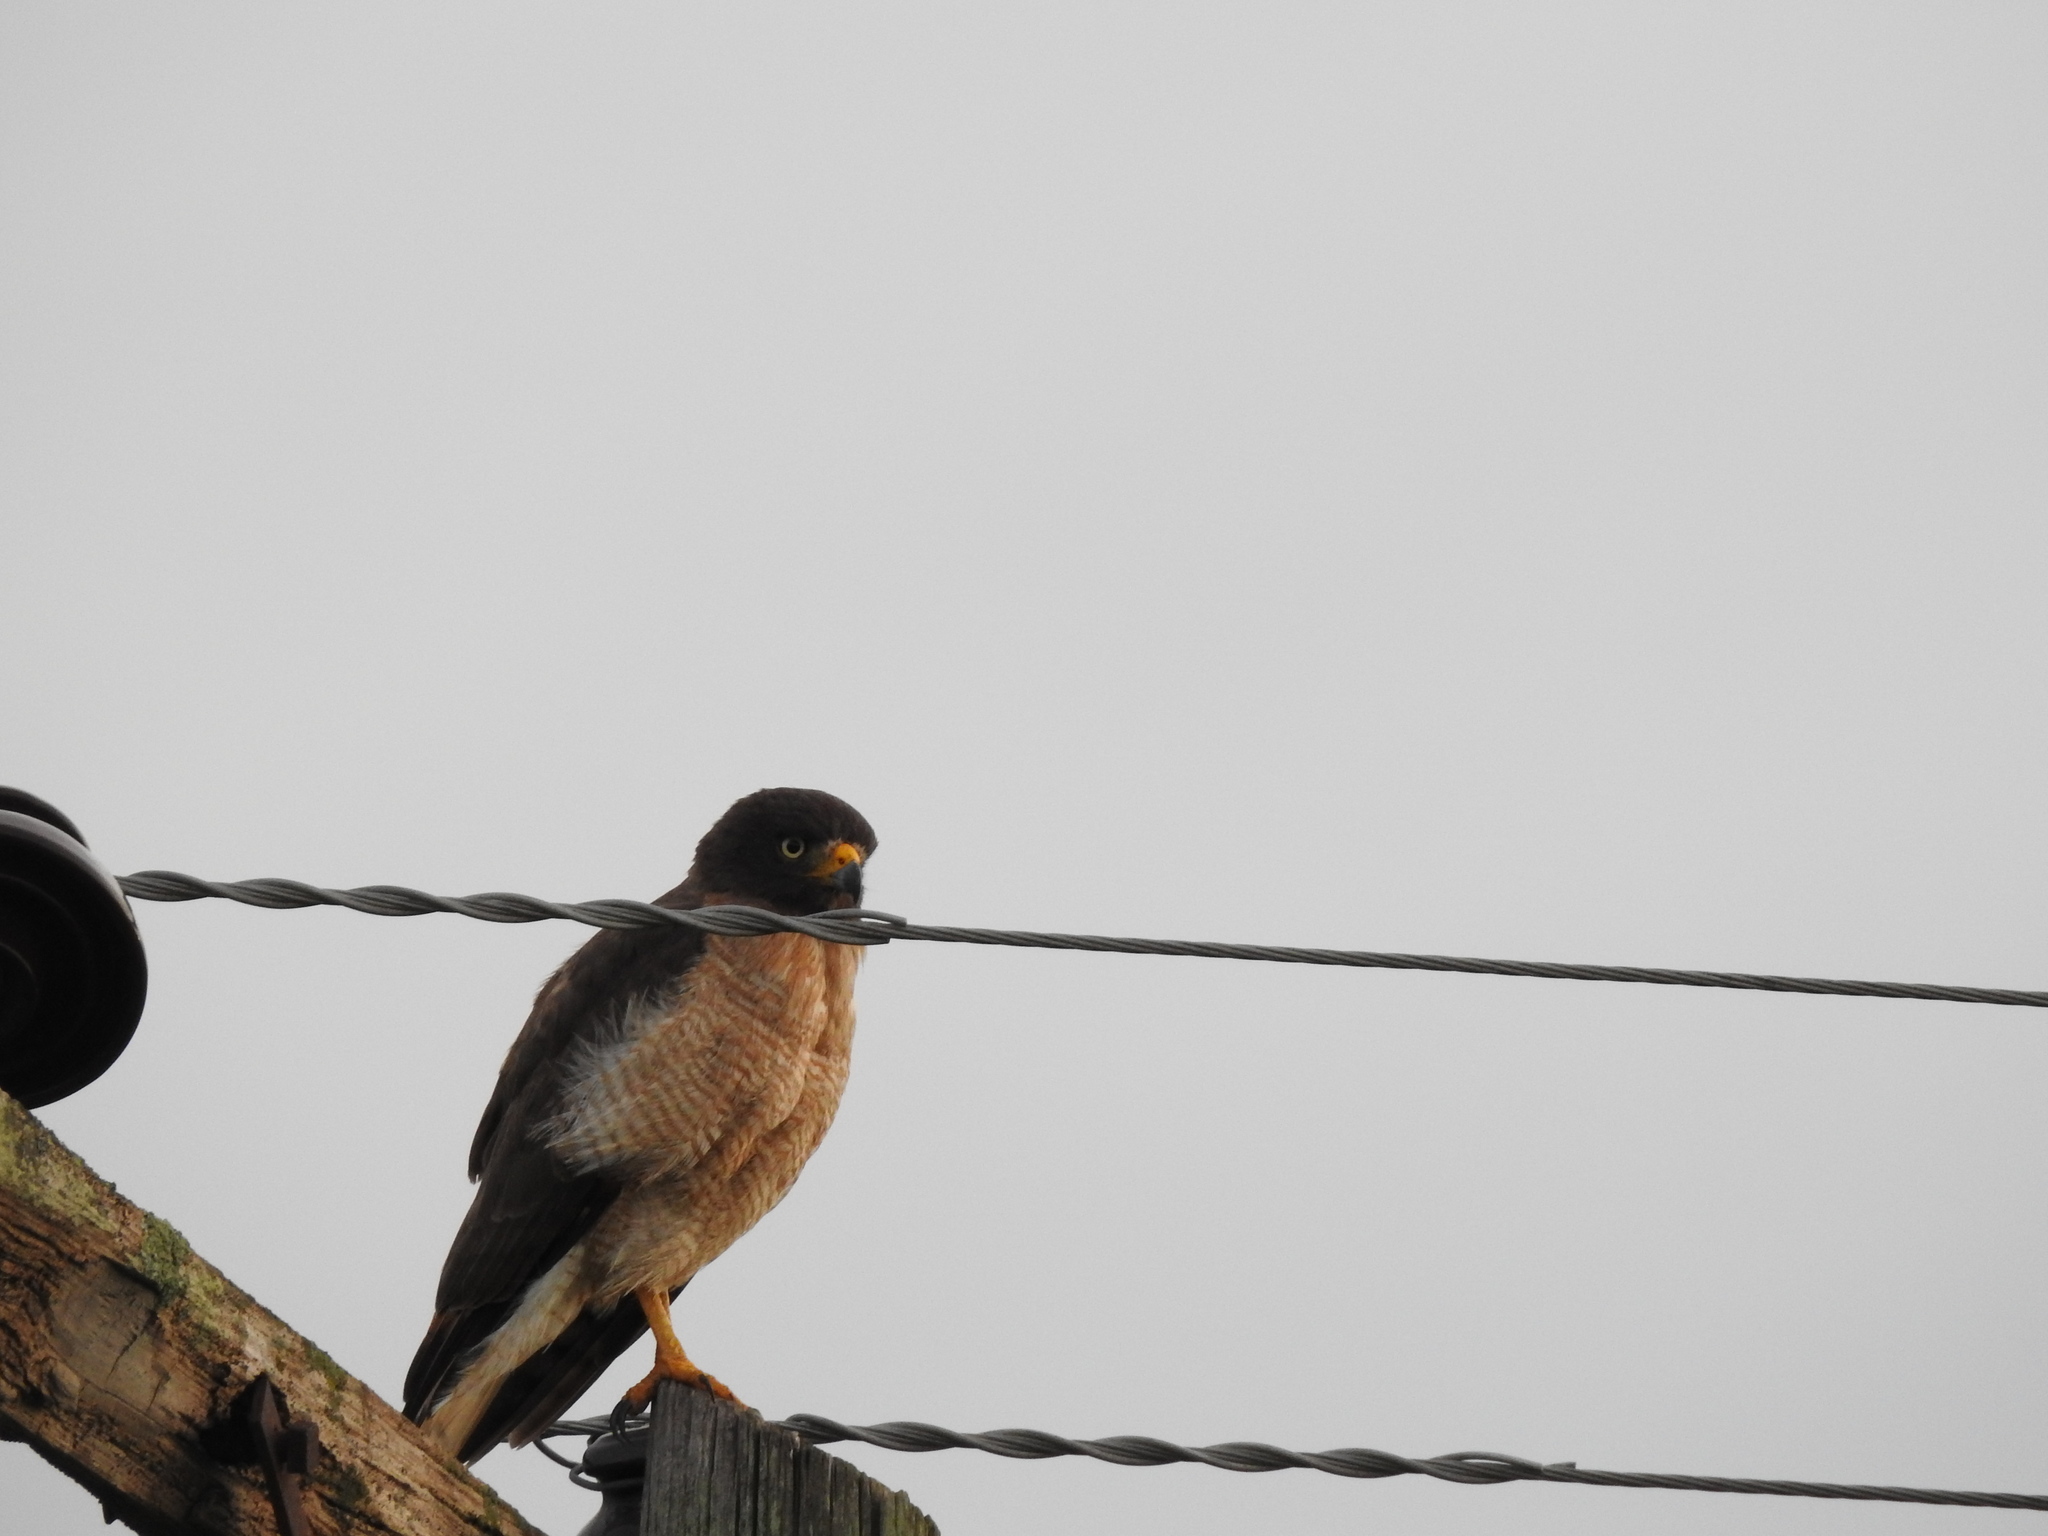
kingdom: Animalia
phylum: Chordata
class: Aves
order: Accipitriformes
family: Accipitridae
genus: Rupornis
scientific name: Rupornis magnirostris
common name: Roadside hawk
